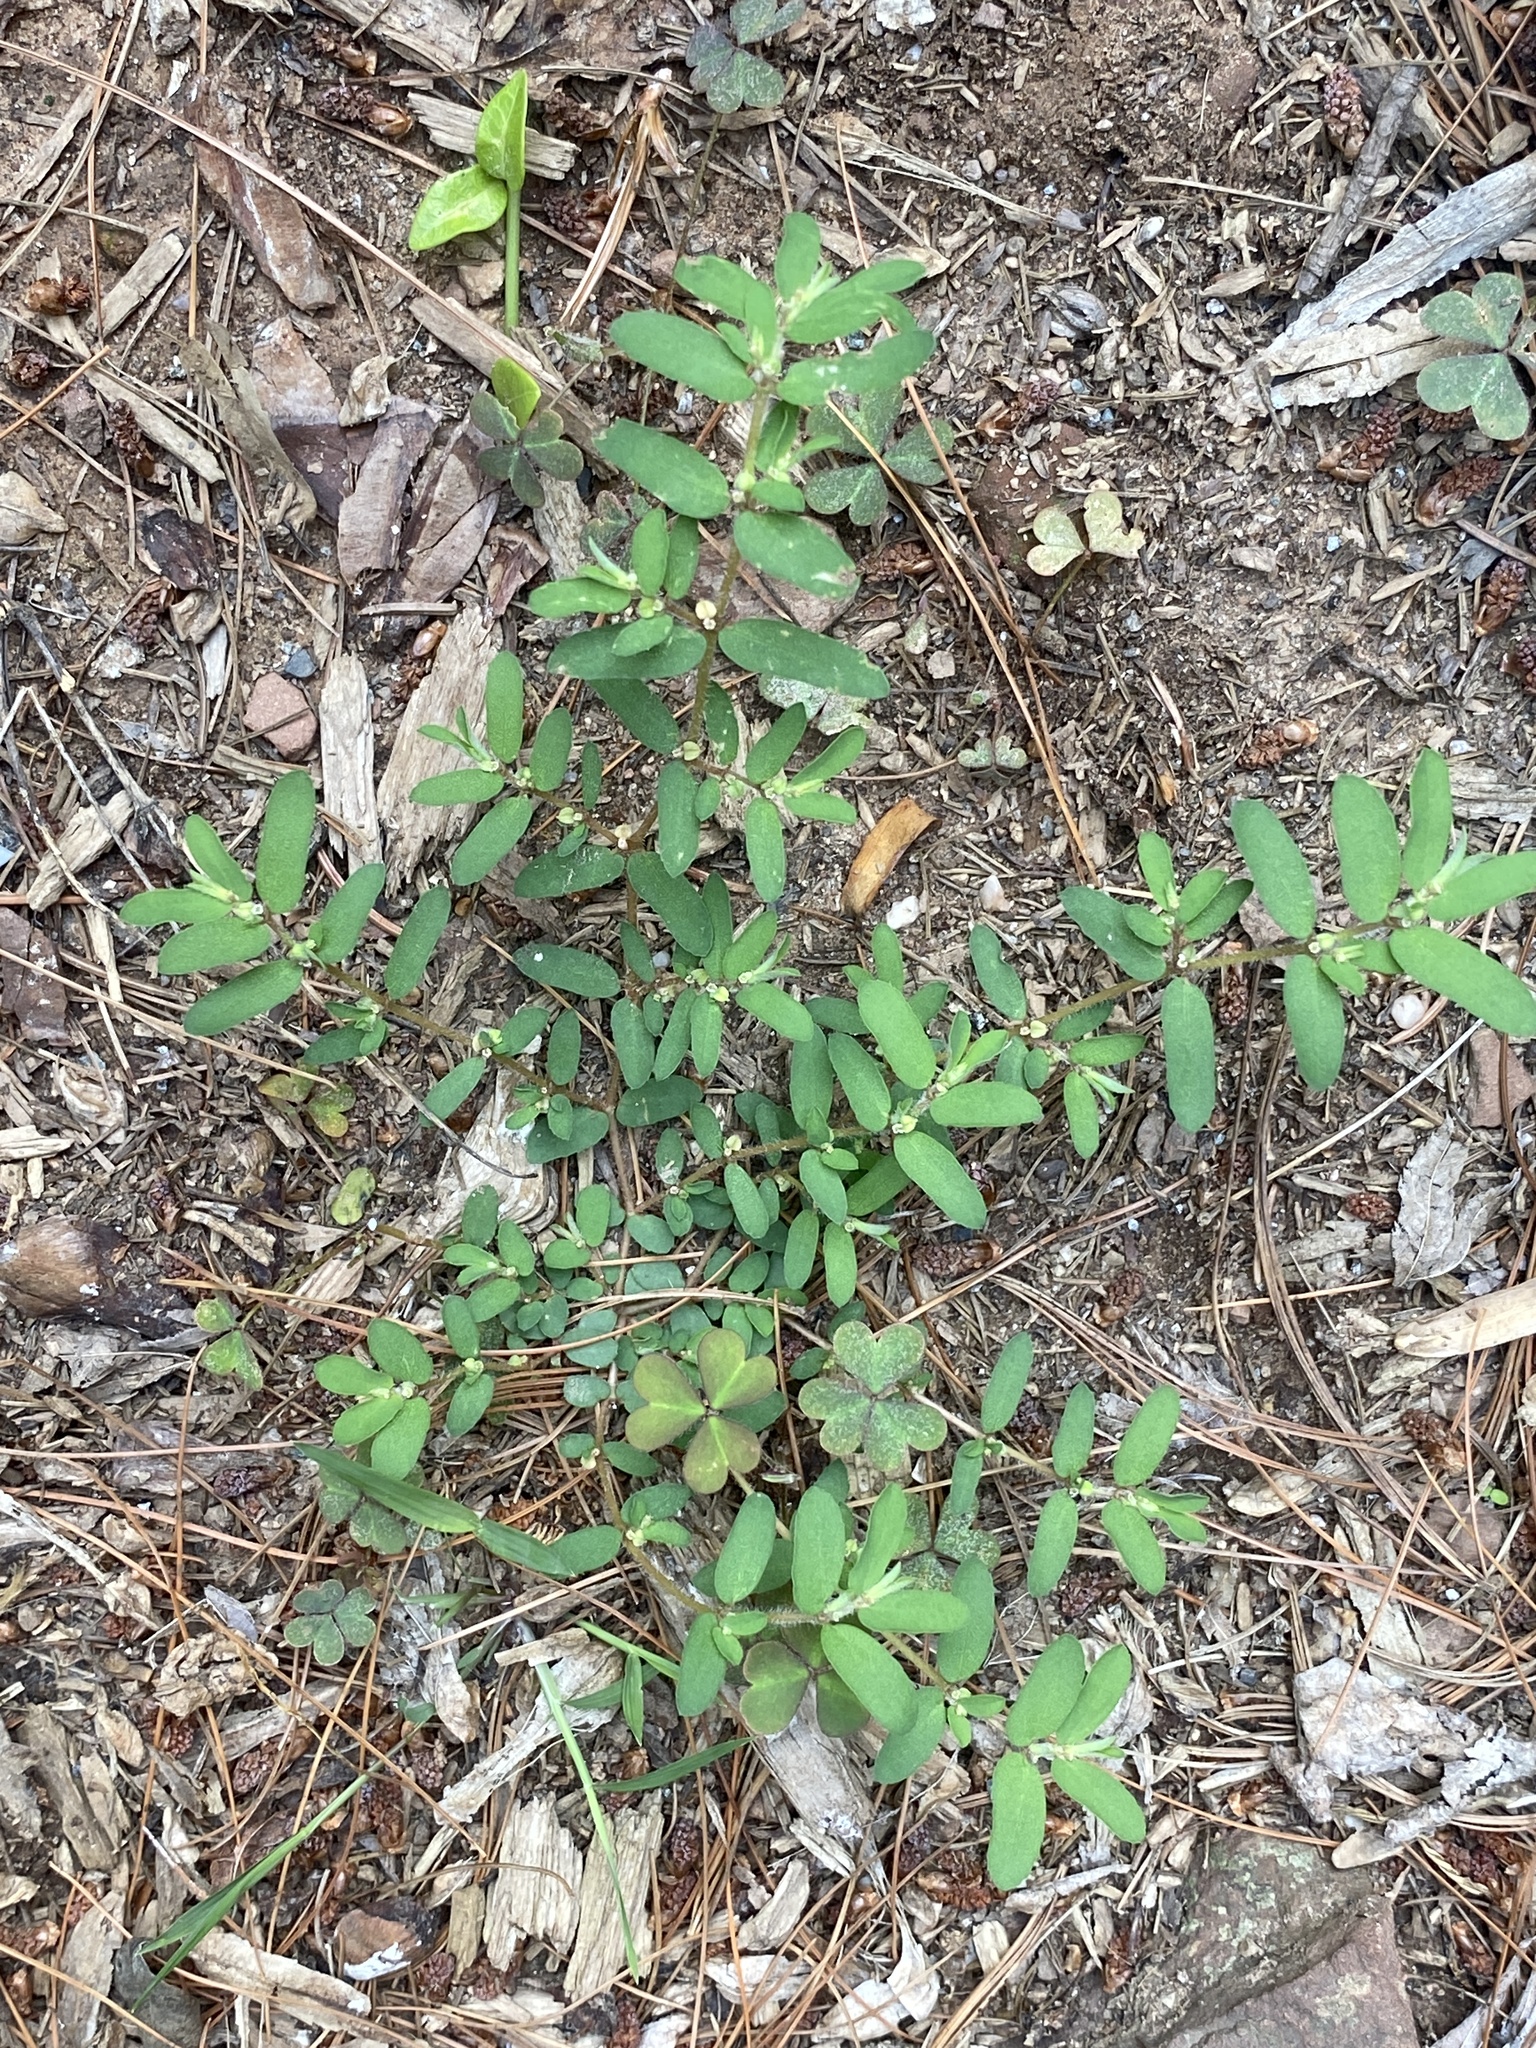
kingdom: Plantae
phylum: Tracheophyta
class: Magnoliopsida
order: Malpighiales
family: Euphorbiaceae
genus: Euphorbia
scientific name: Euphorbia maculata
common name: Spotted spurge
